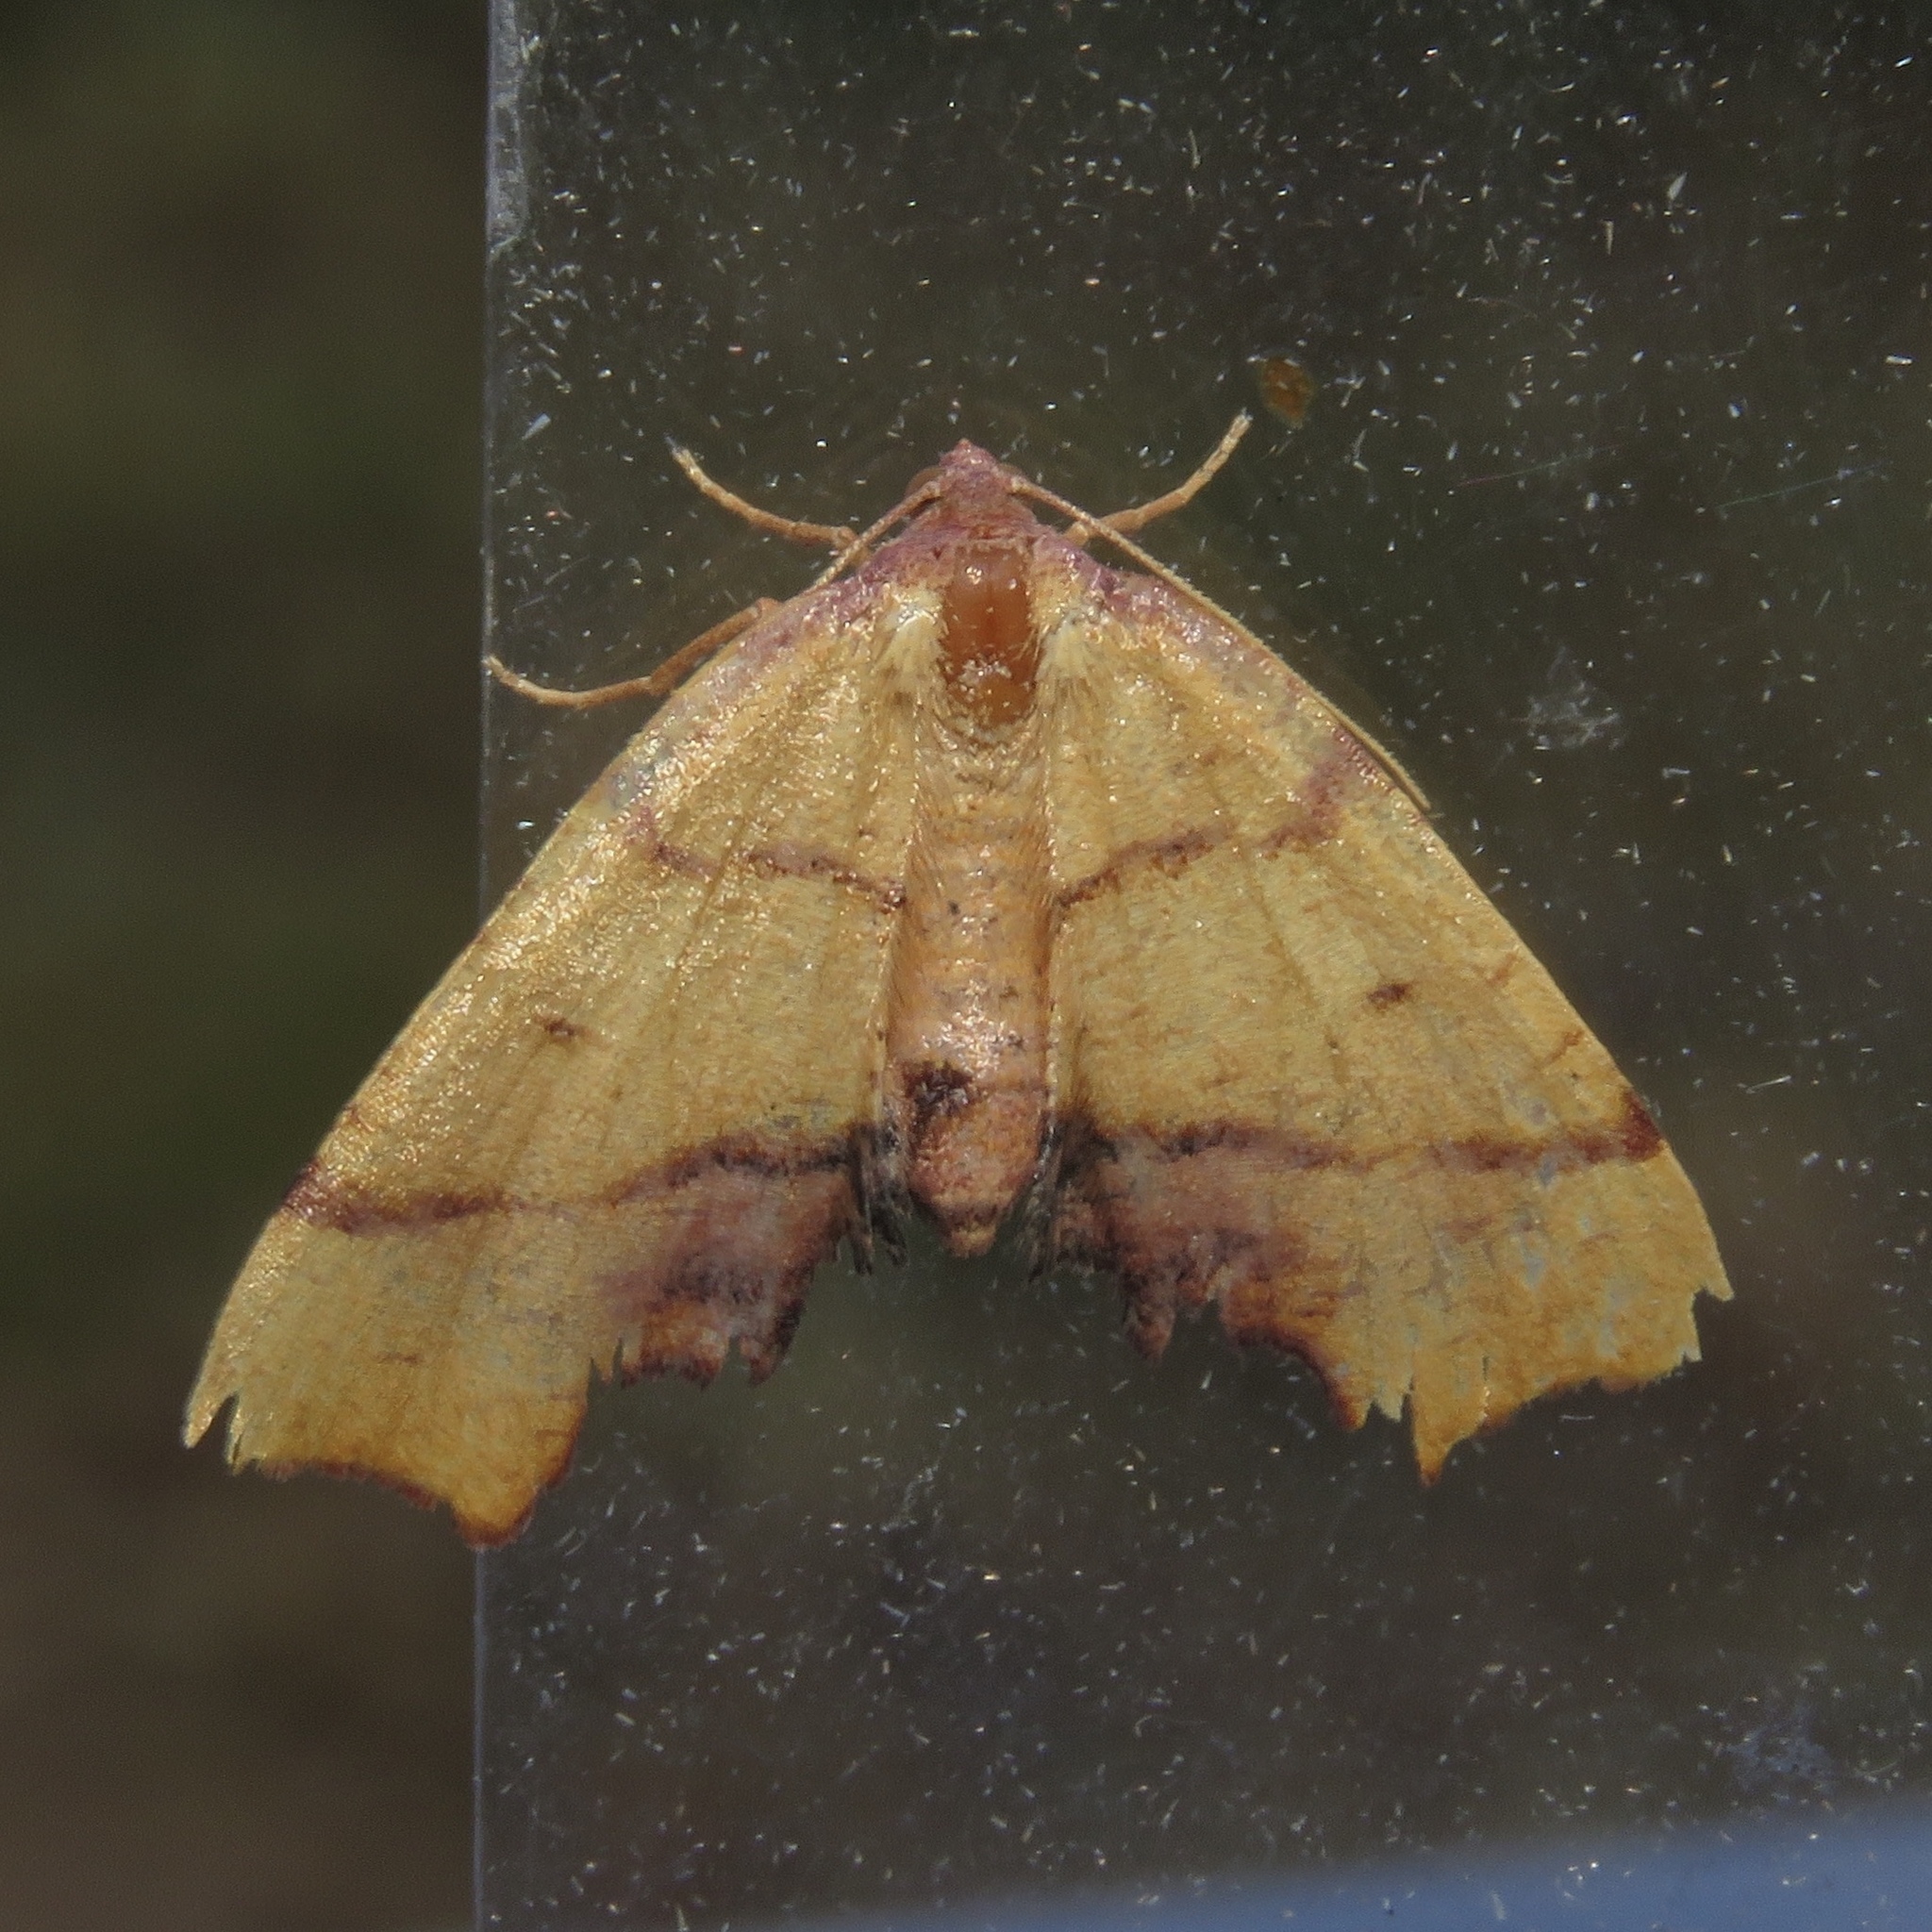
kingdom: Animalia
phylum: Arthropoda
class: Insecta
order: Lepidoptera
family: Geometridae
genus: Plagodis
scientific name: Plagodis phlogosaria
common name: Straight-lined plagodis
